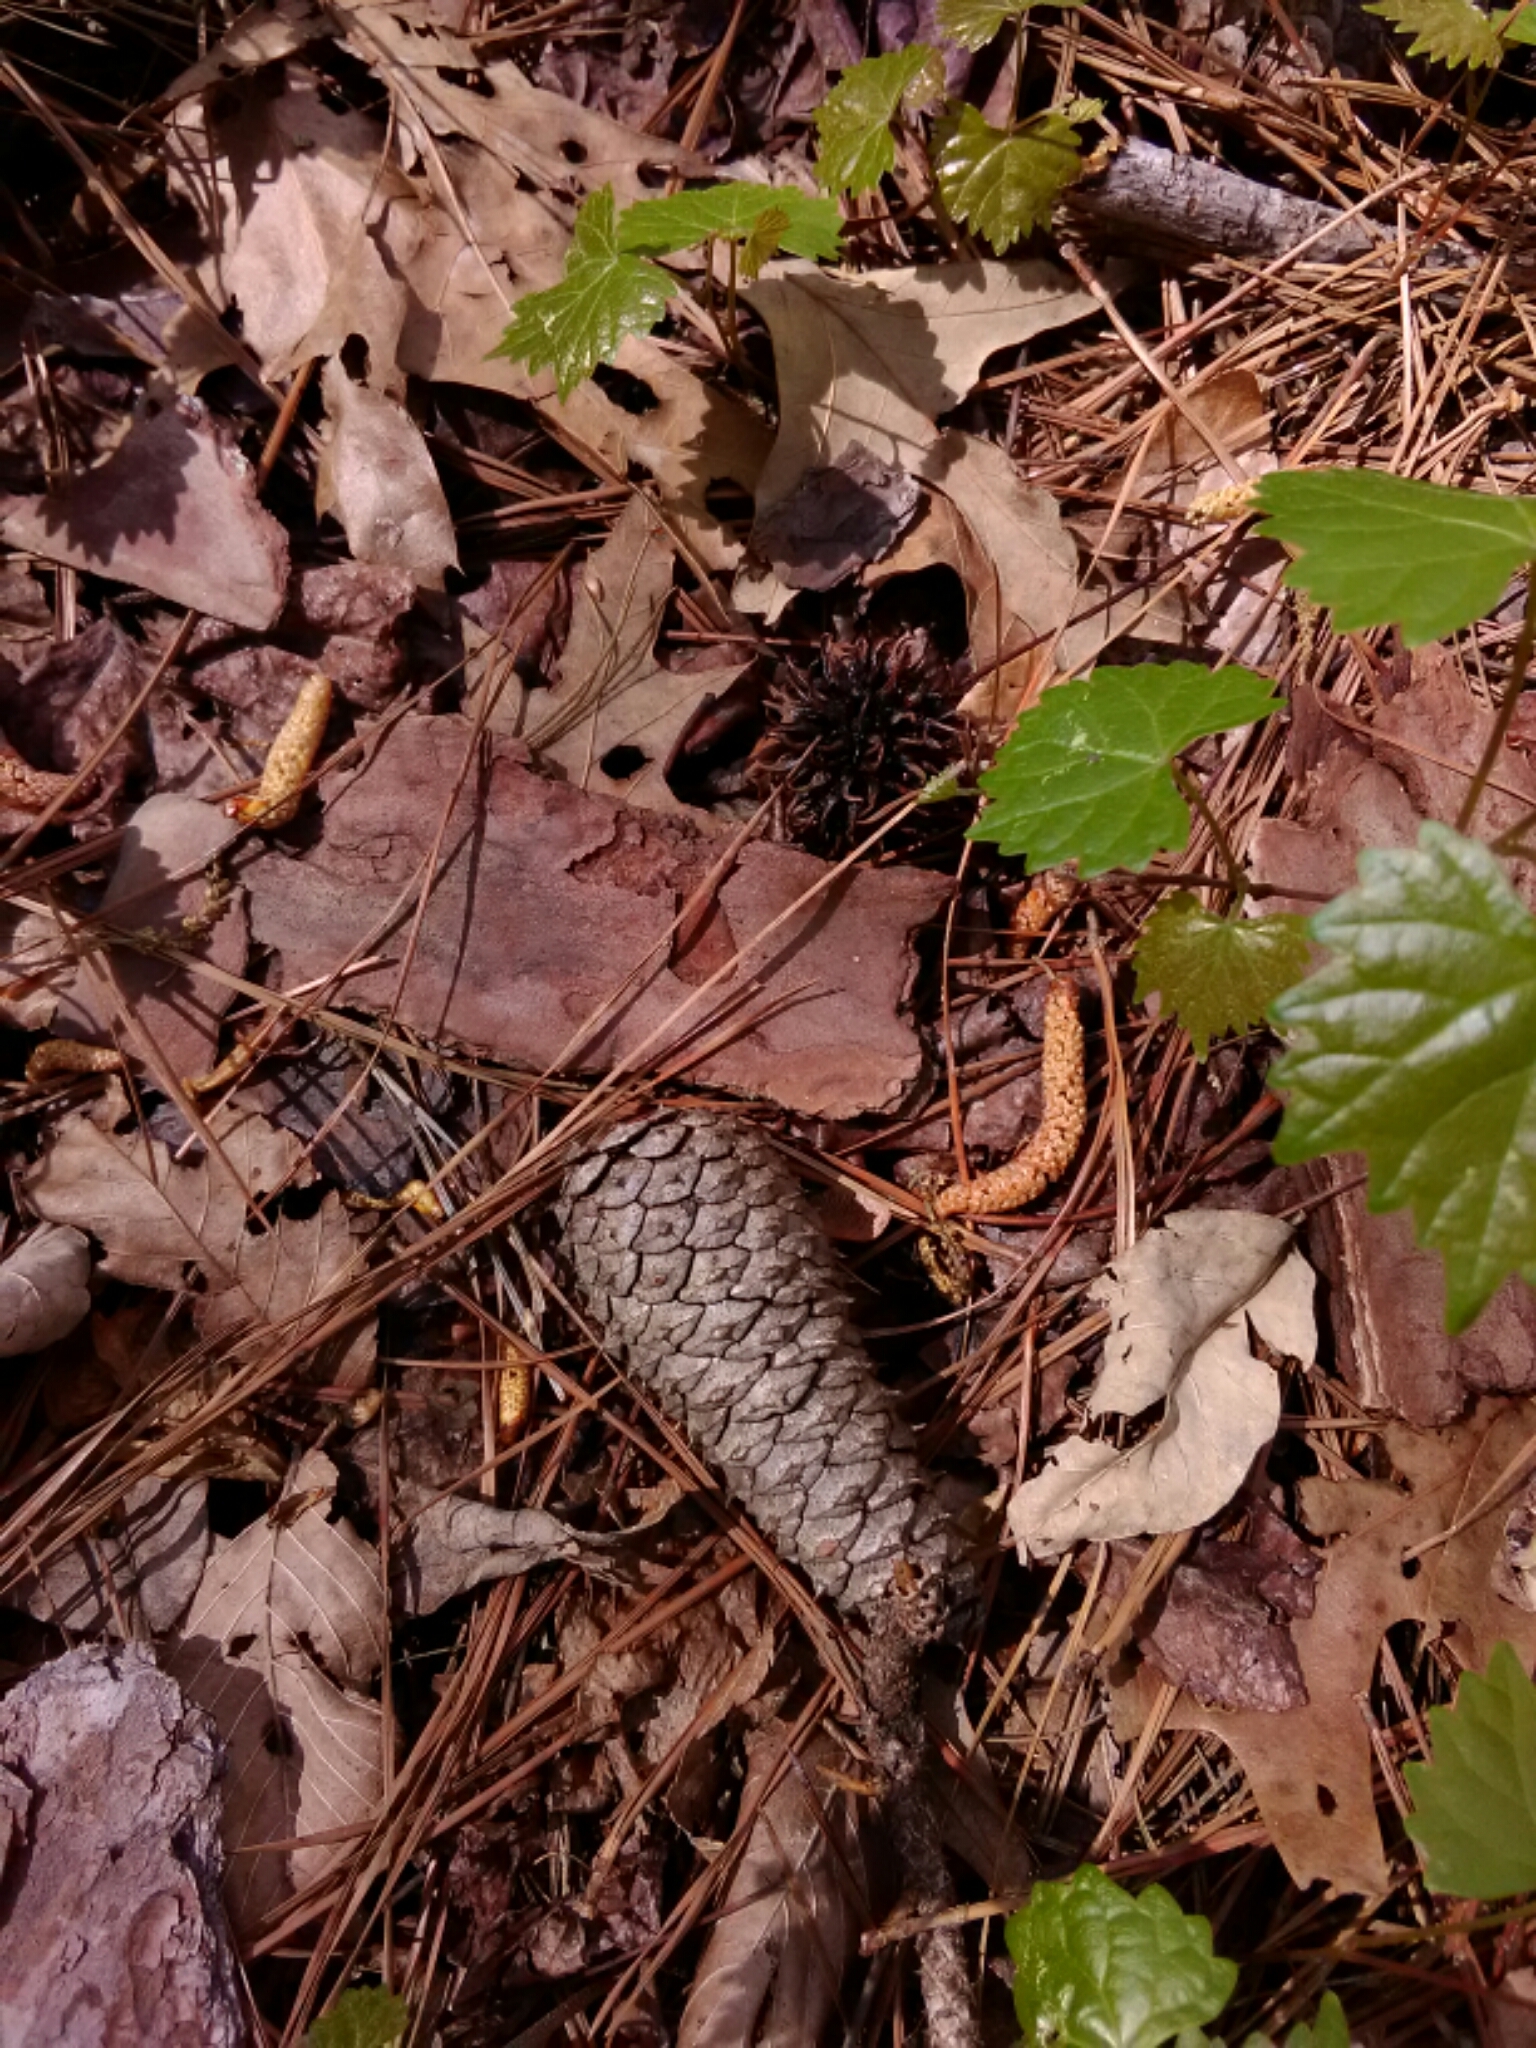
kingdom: Plantae
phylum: Tracheophyta
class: Magnoliopsida
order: Saxifragales
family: Altingiaceae
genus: Liquidambar
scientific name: Liquidambar styraciflua
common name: Sweet gum
